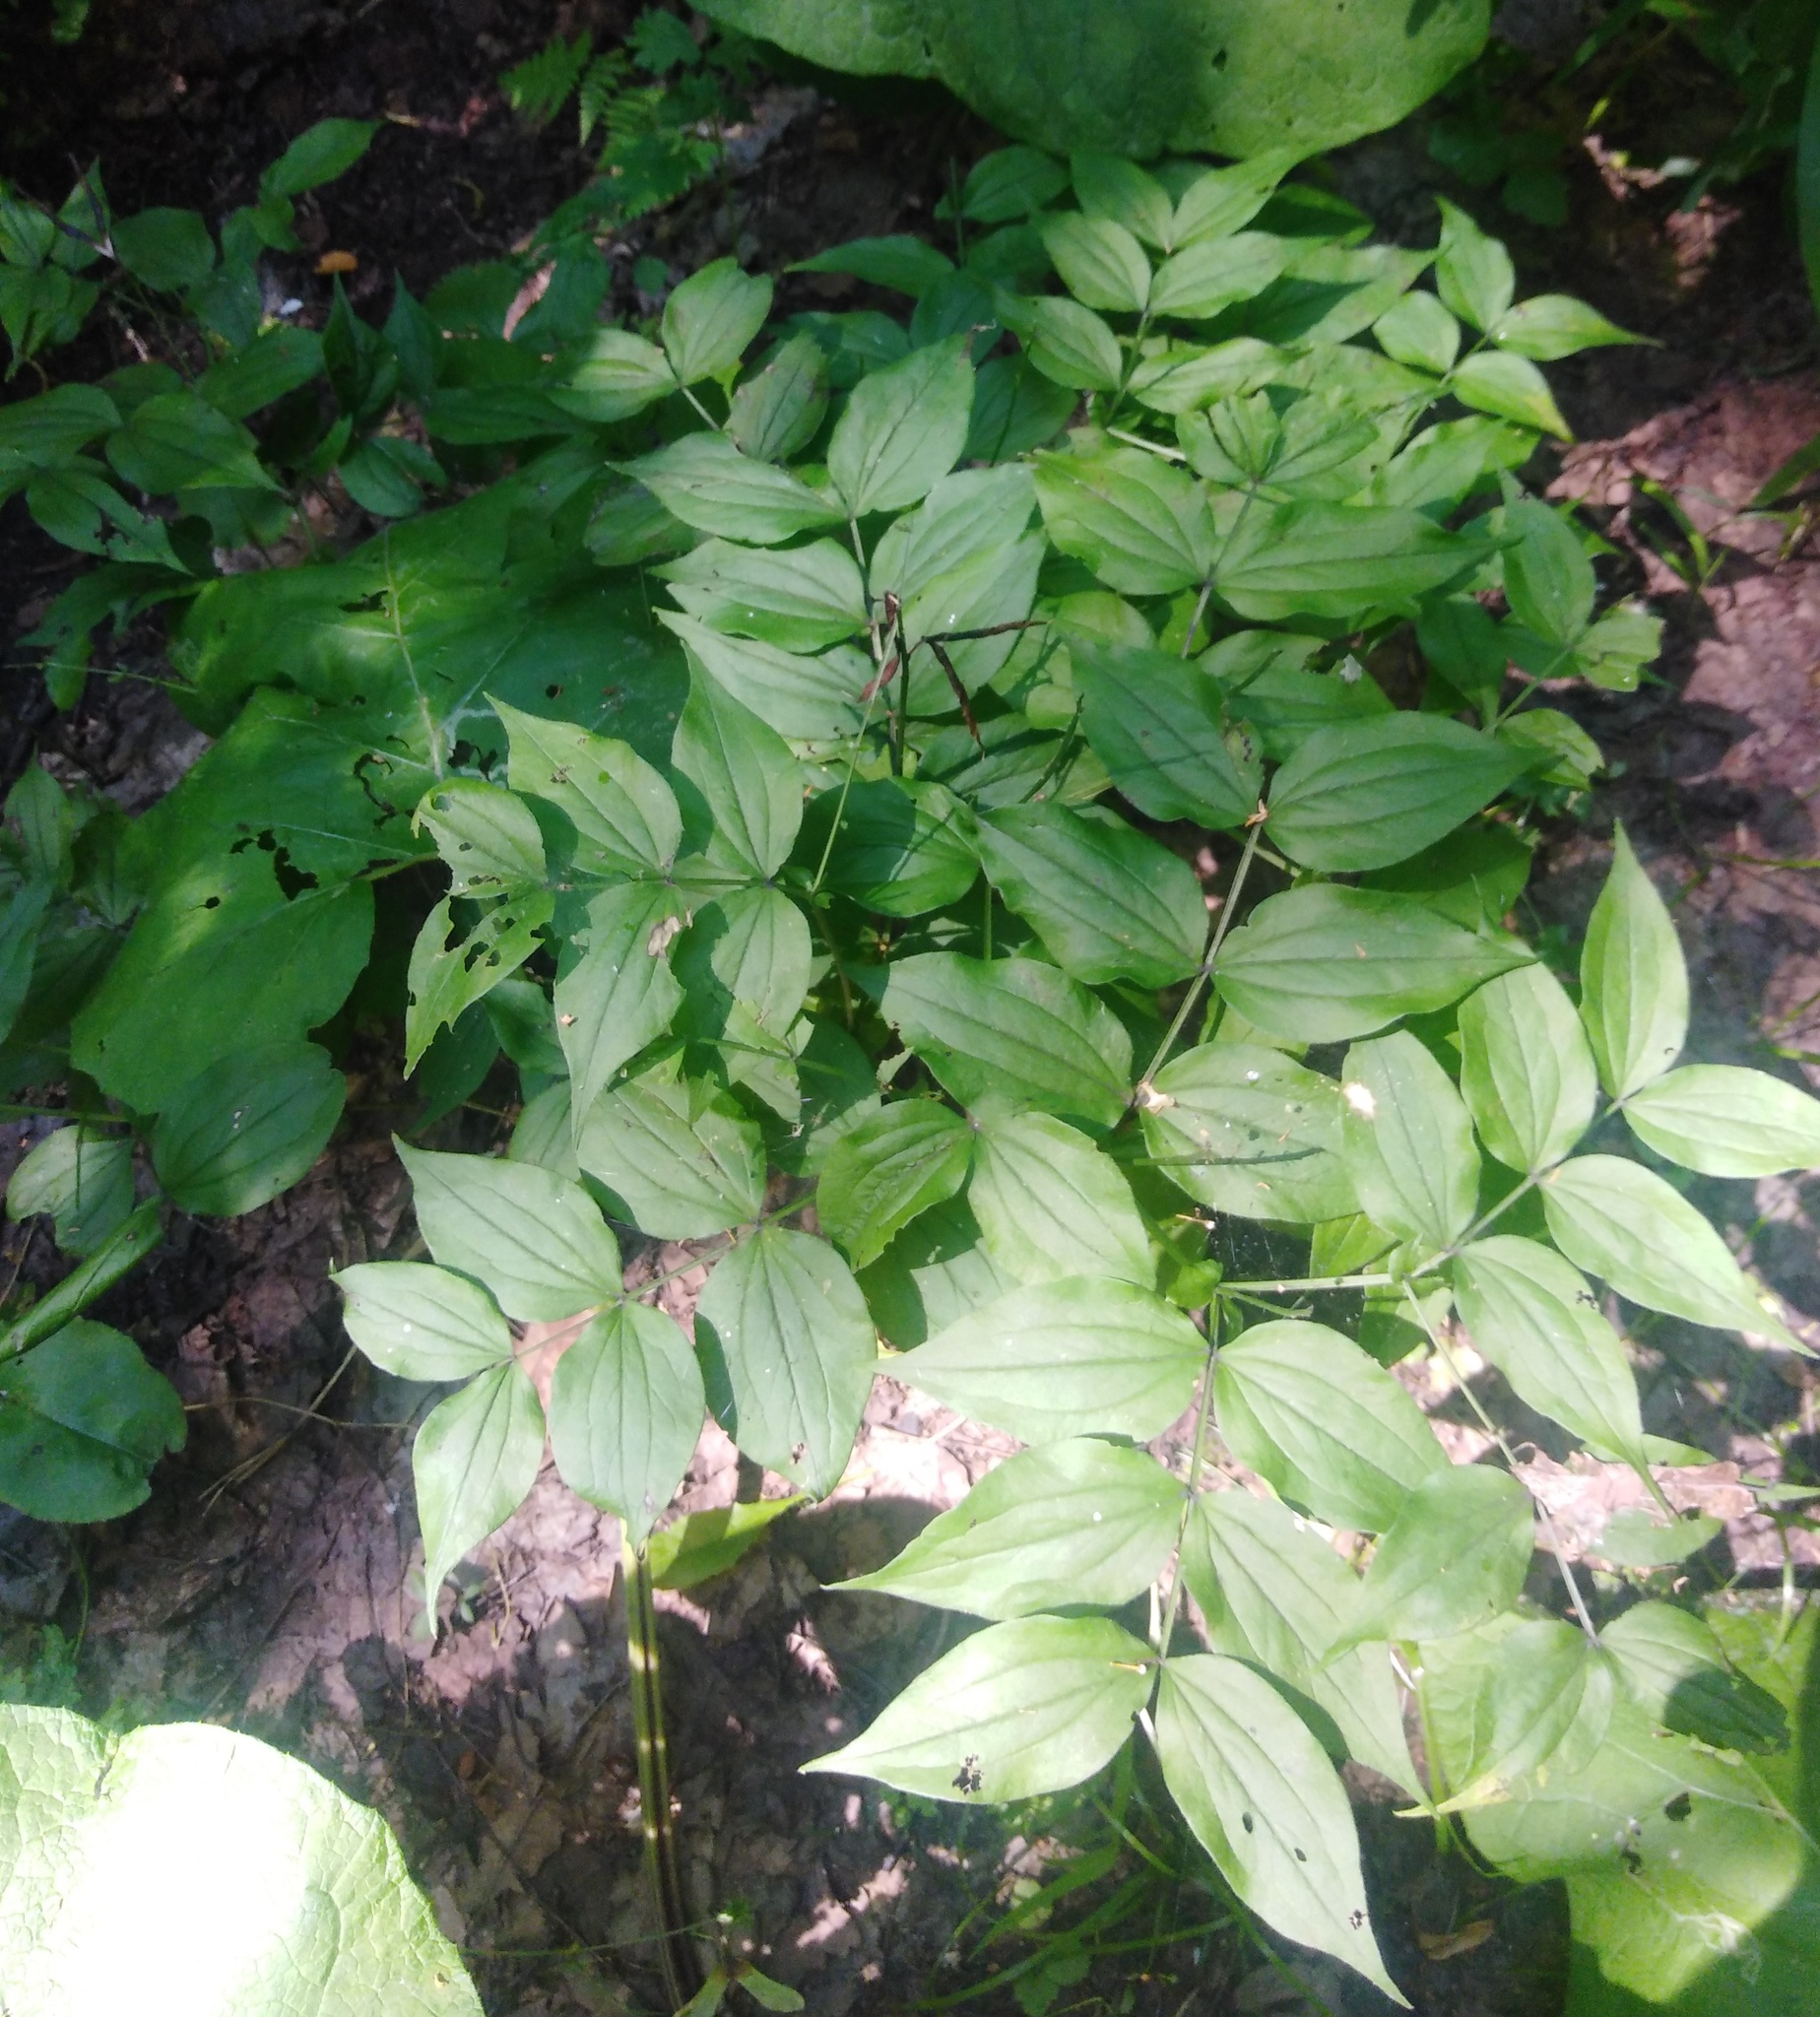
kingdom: Plantae
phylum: Tracheophyta
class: Magnoliopsida
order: Fabales
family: Fabaceae
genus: Lathyrus
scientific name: Lathyrus vernus
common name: Spring pea
